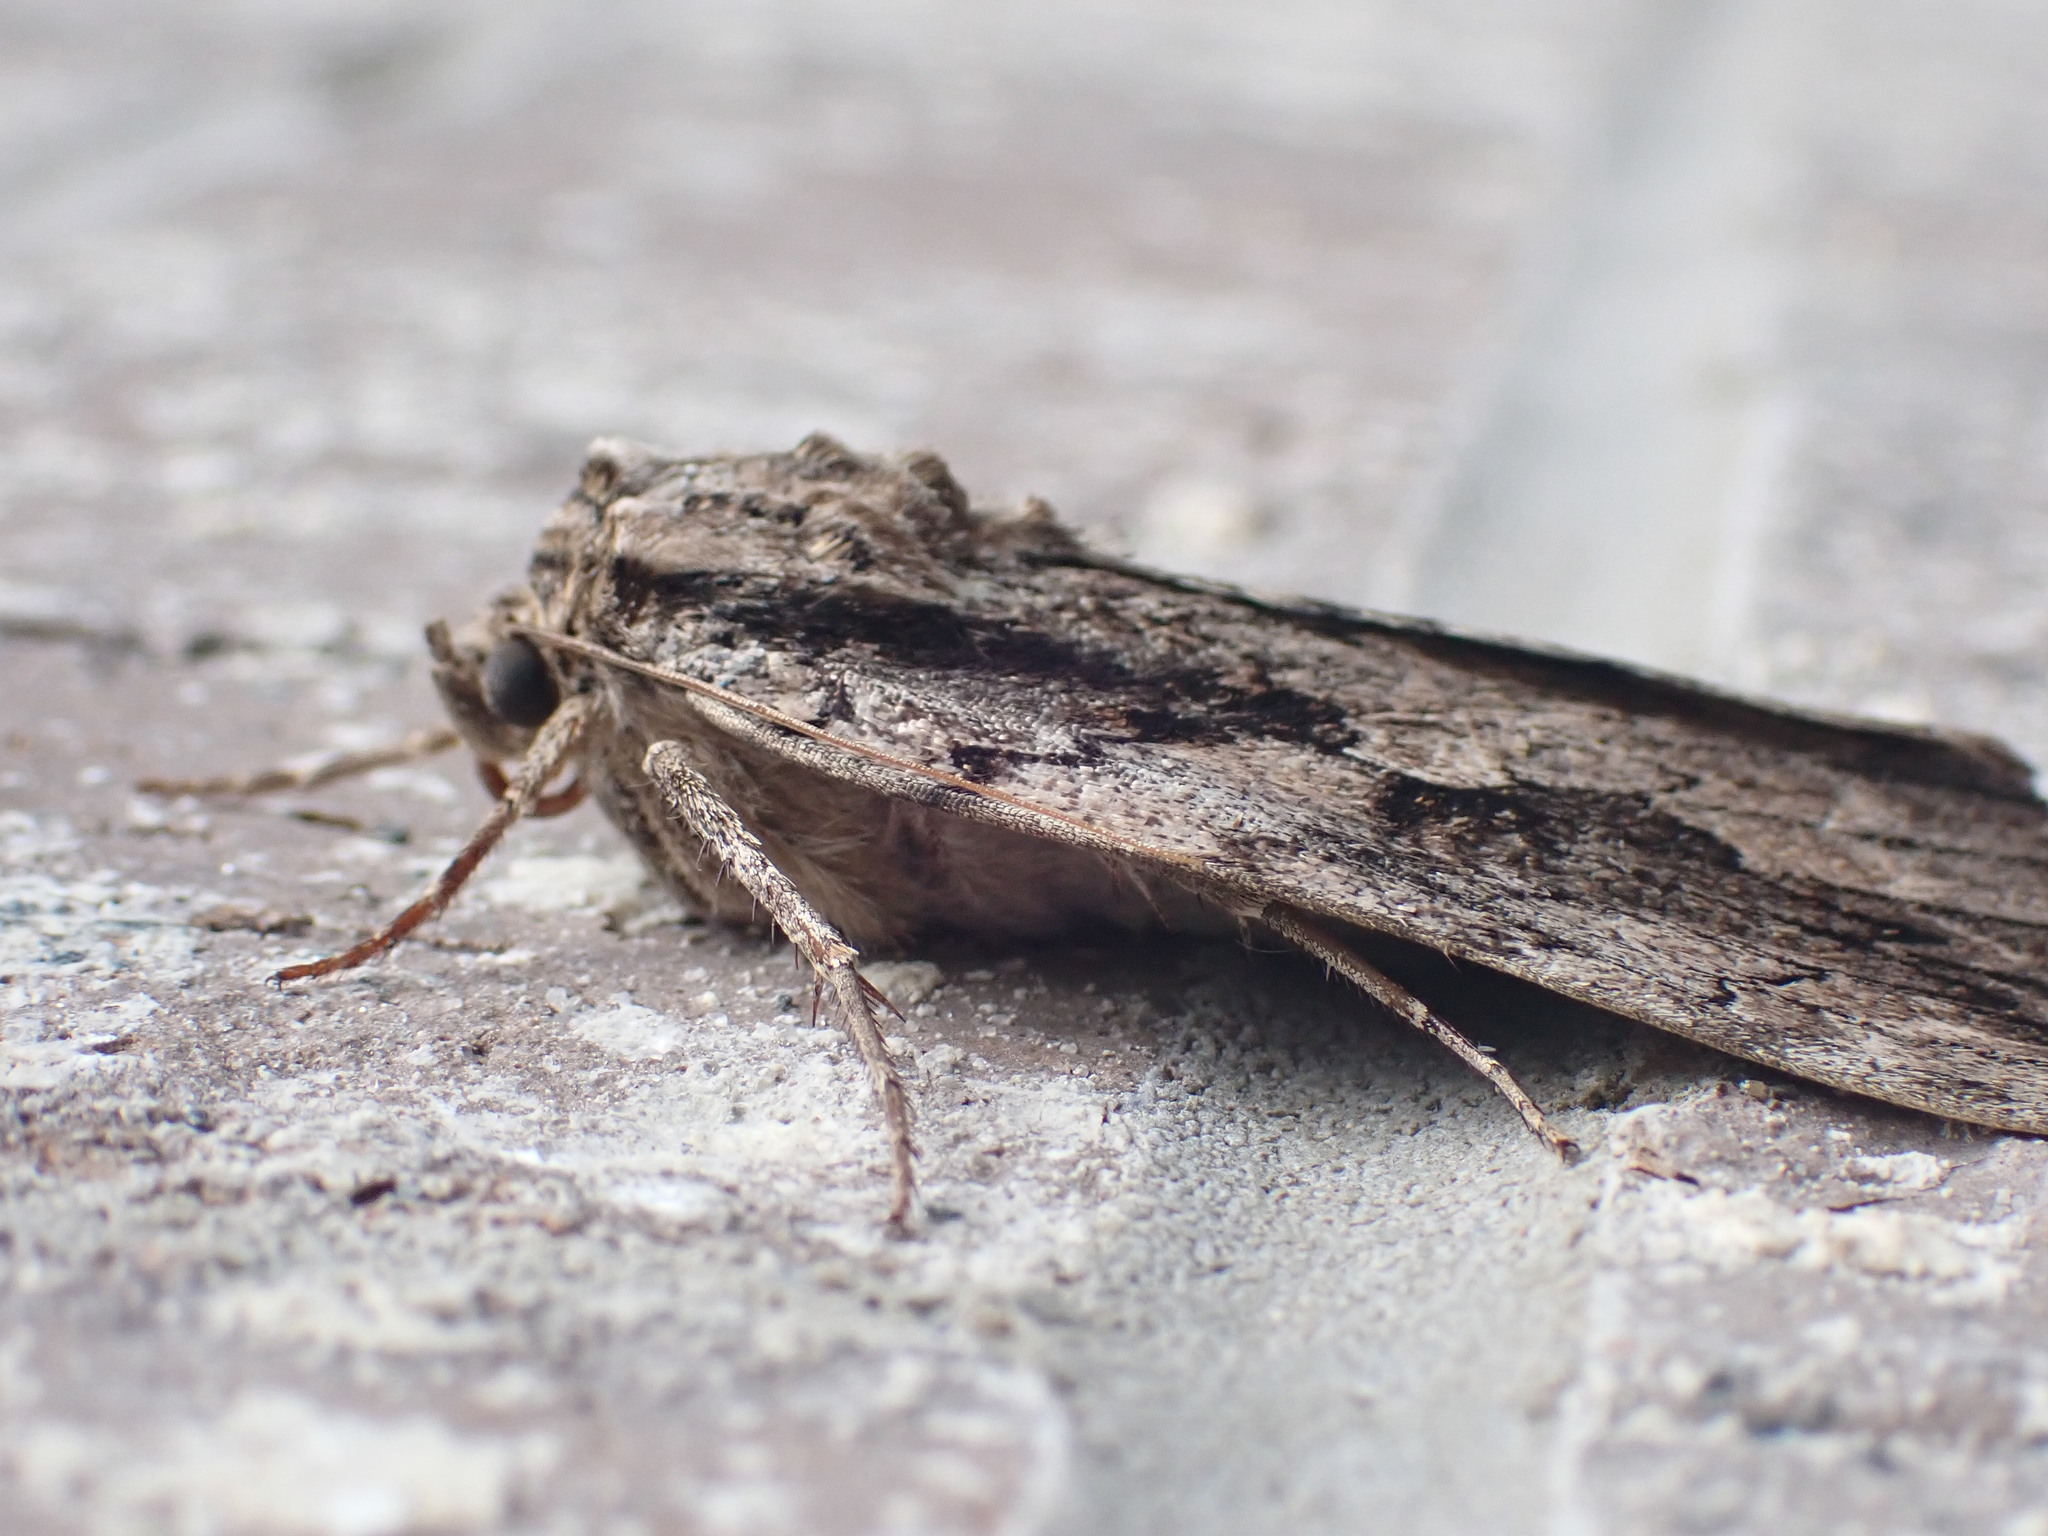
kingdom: Animalia
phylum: Arthropoda
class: Insecta
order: Lepidoptera
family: Erebidae
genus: Catocala
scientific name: Catocala amatrix
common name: Sweetheart underwing
